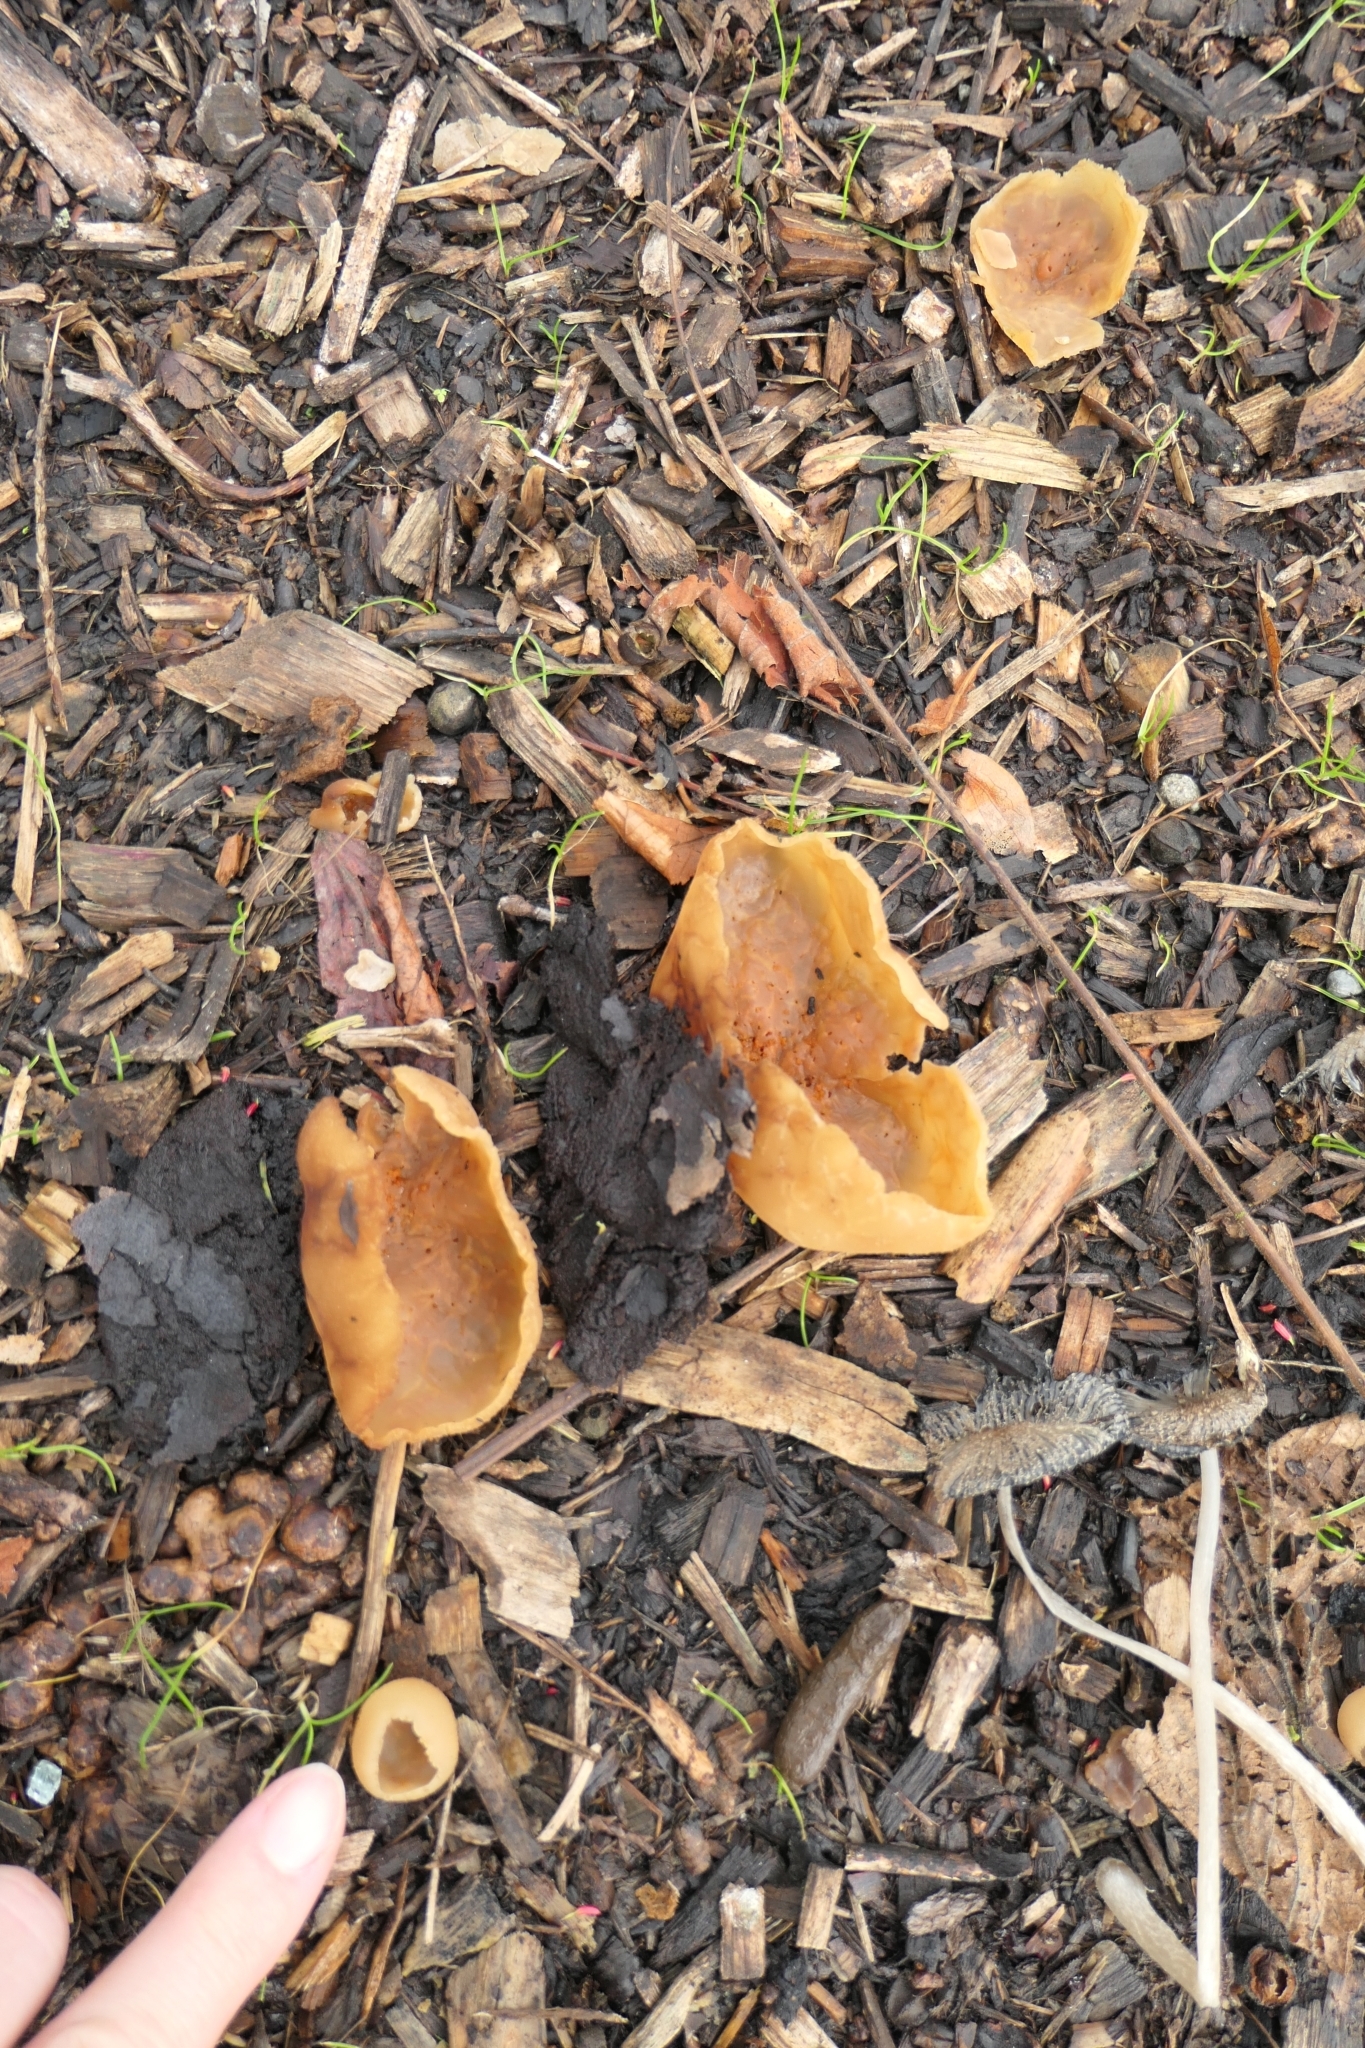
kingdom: Fungi
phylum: Ascomycota
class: Pezizomycetes
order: Pezizales
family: Pezizaceae
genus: Peziza
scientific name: Peziza varia
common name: Layered cup
